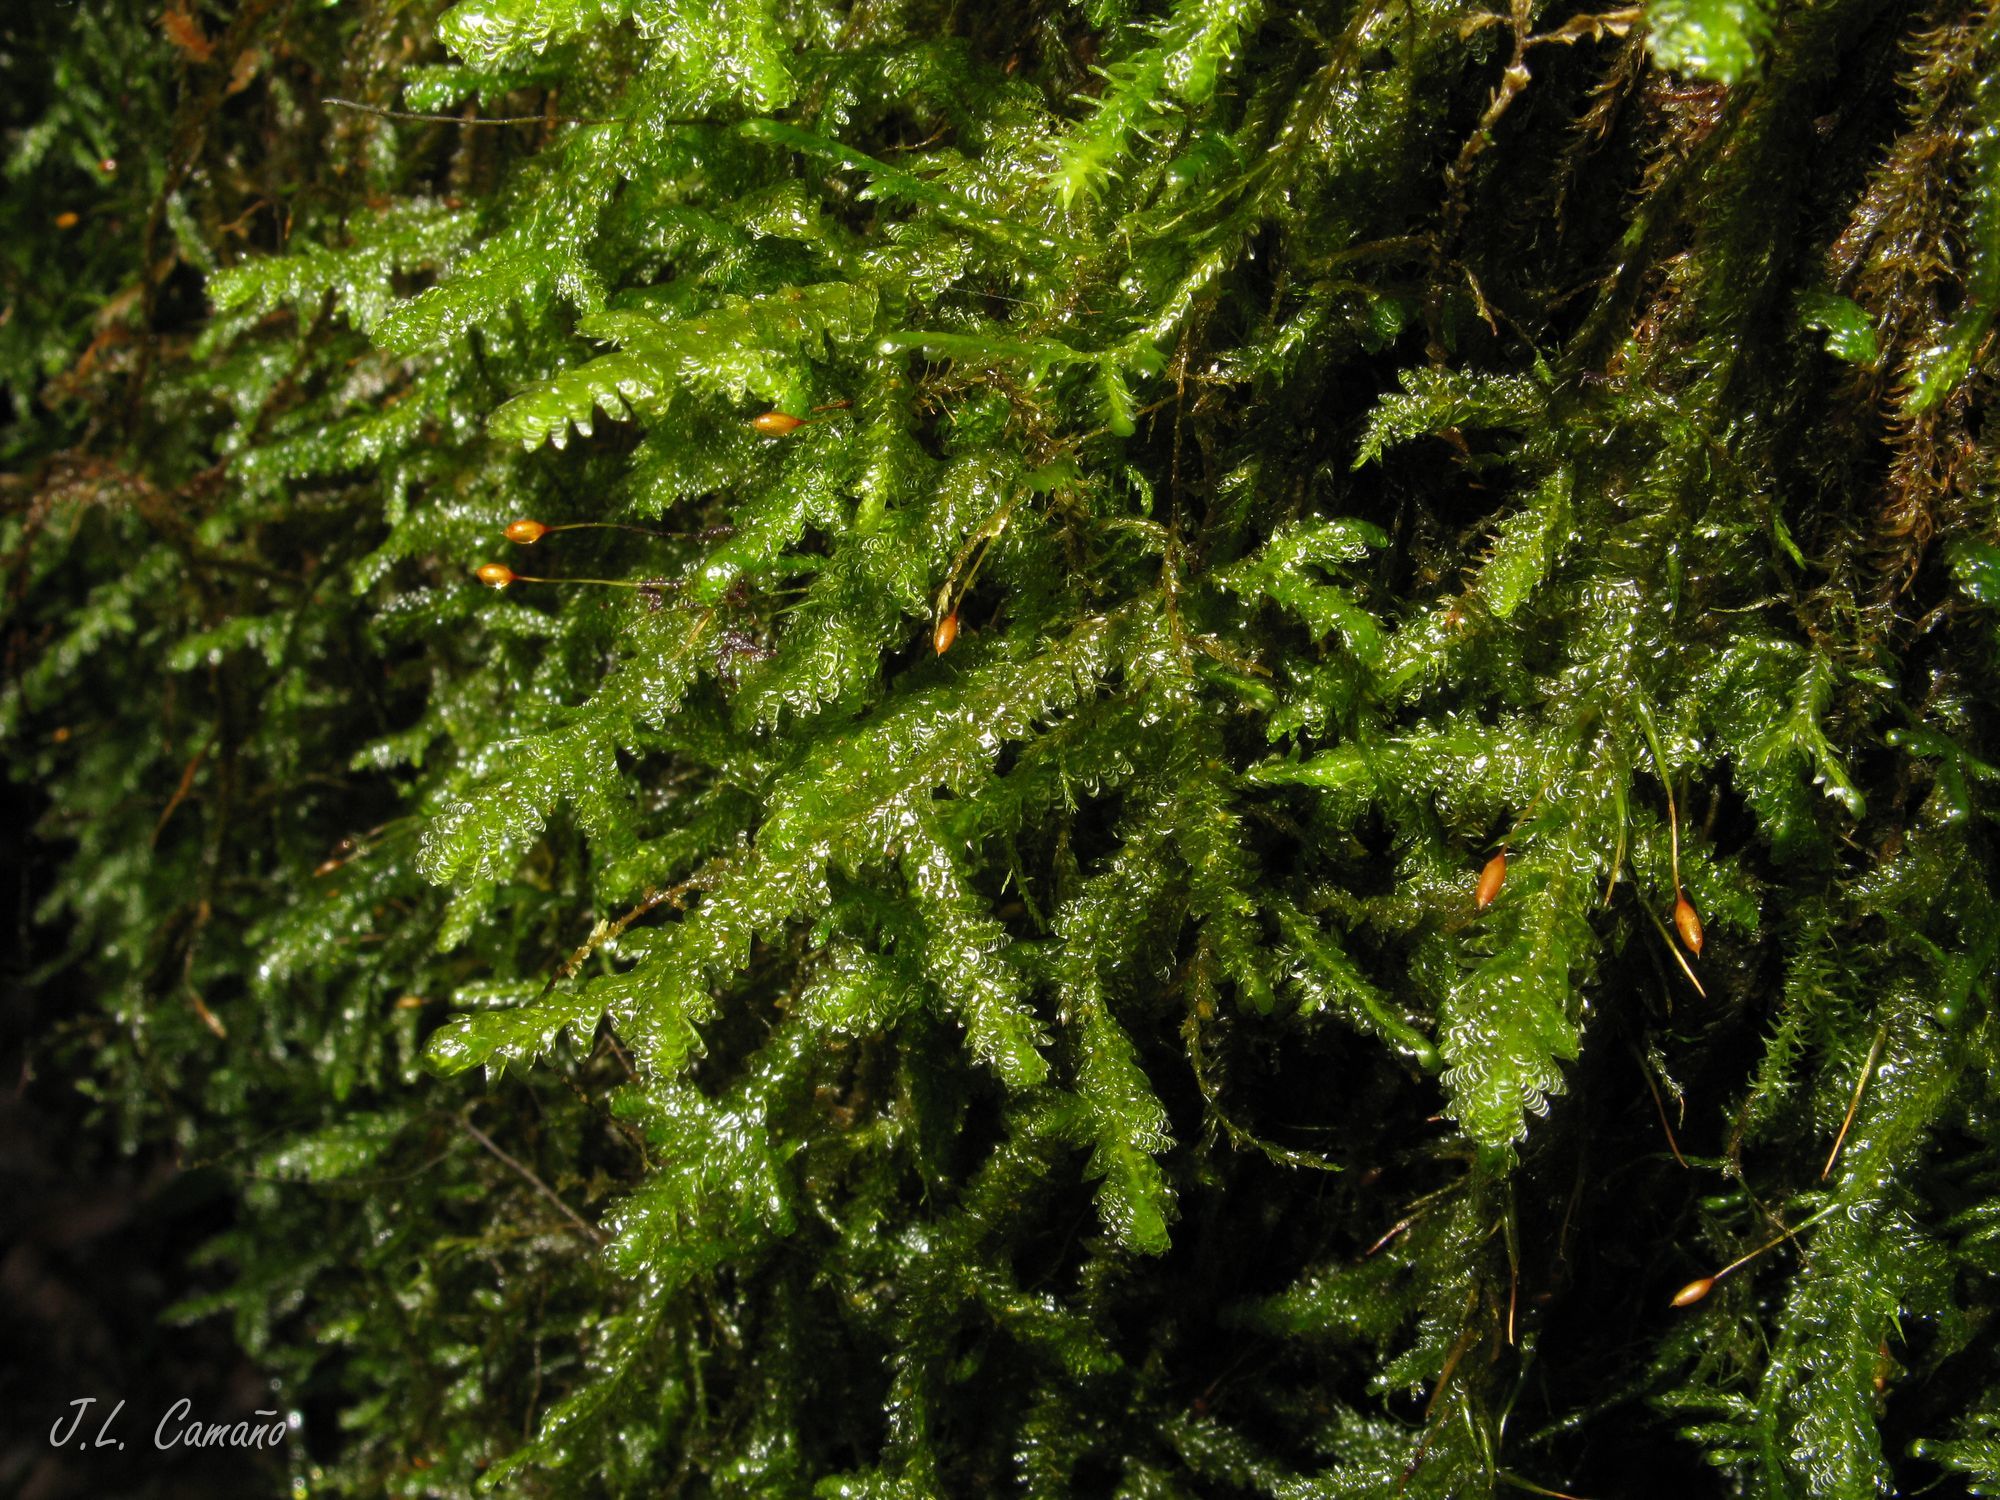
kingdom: Plantae
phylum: Bryophyta
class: Bryopsida
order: Hypnales
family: Neckeraceae
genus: Exsertotheca
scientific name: Exsertotheca crispa
